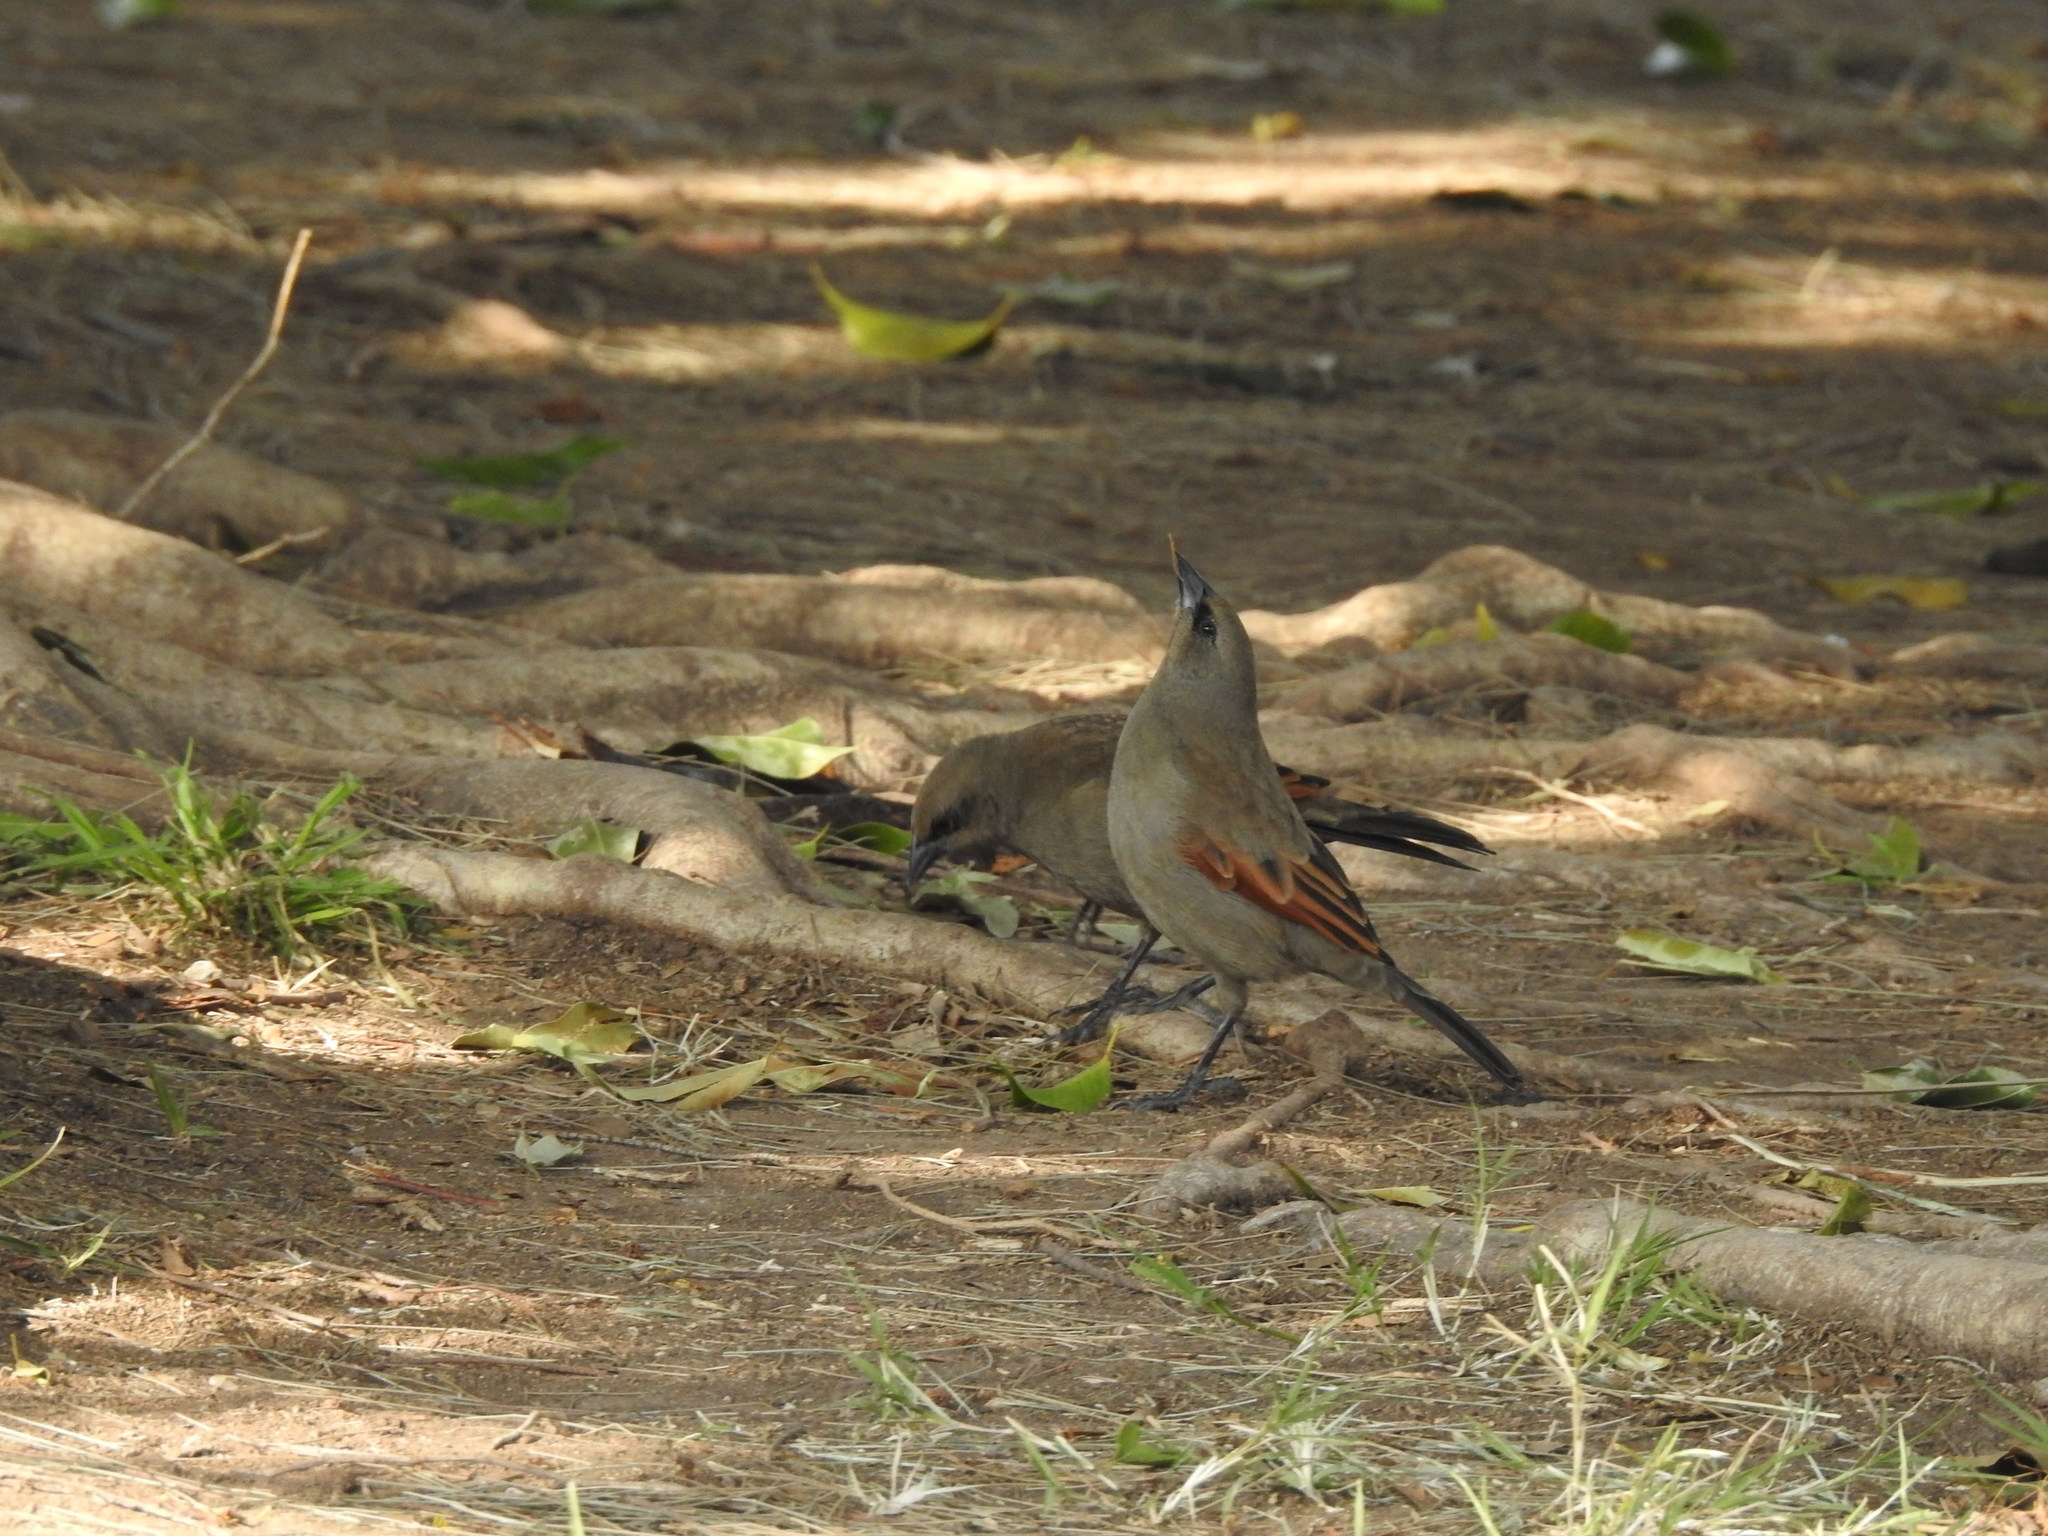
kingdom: Animalia
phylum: Chordata
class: Aves
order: Passeriformes
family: Icteridae
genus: Agelaioides
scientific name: Agelaioides badius
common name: Baywing
